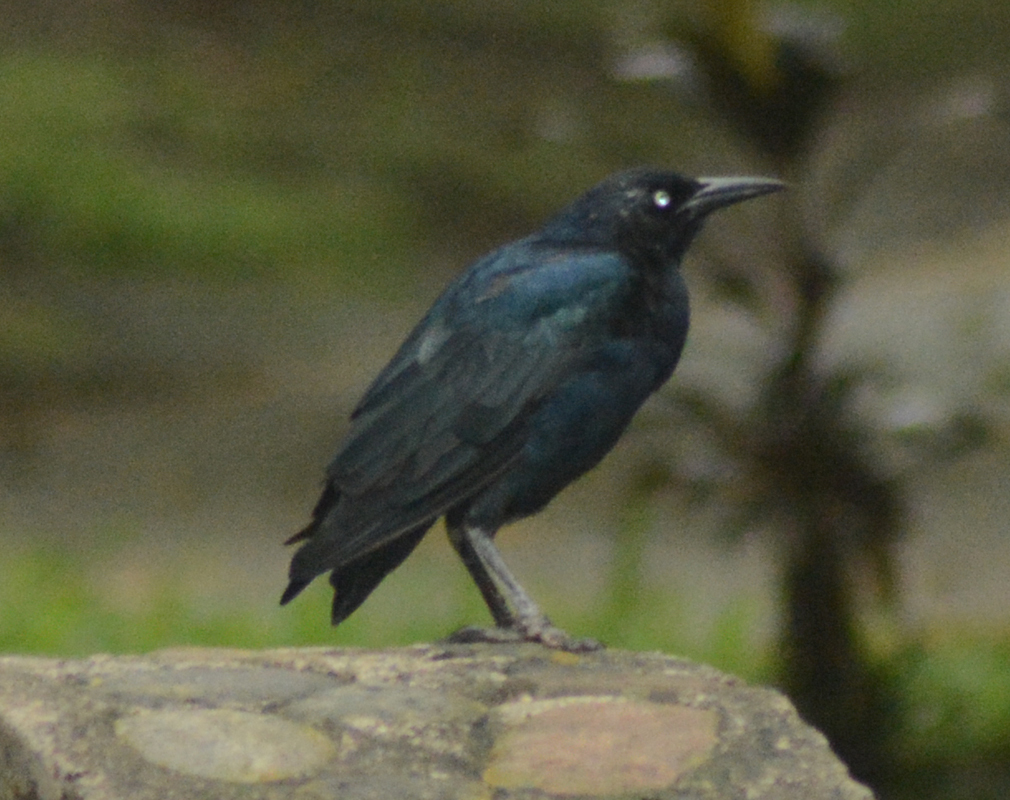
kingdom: Animalia
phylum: Chordata
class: Aves
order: Passeriformes
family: Icteridae
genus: Quiscalus
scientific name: Quiscalus mexicanus
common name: Great-tailed grackle
